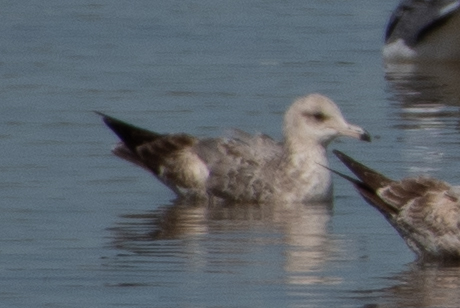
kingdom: Animalia
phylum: Chordata
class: Aves
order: Charadriiformes
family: Laridae
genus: Larus
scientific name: Larus californicus
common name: California gull
